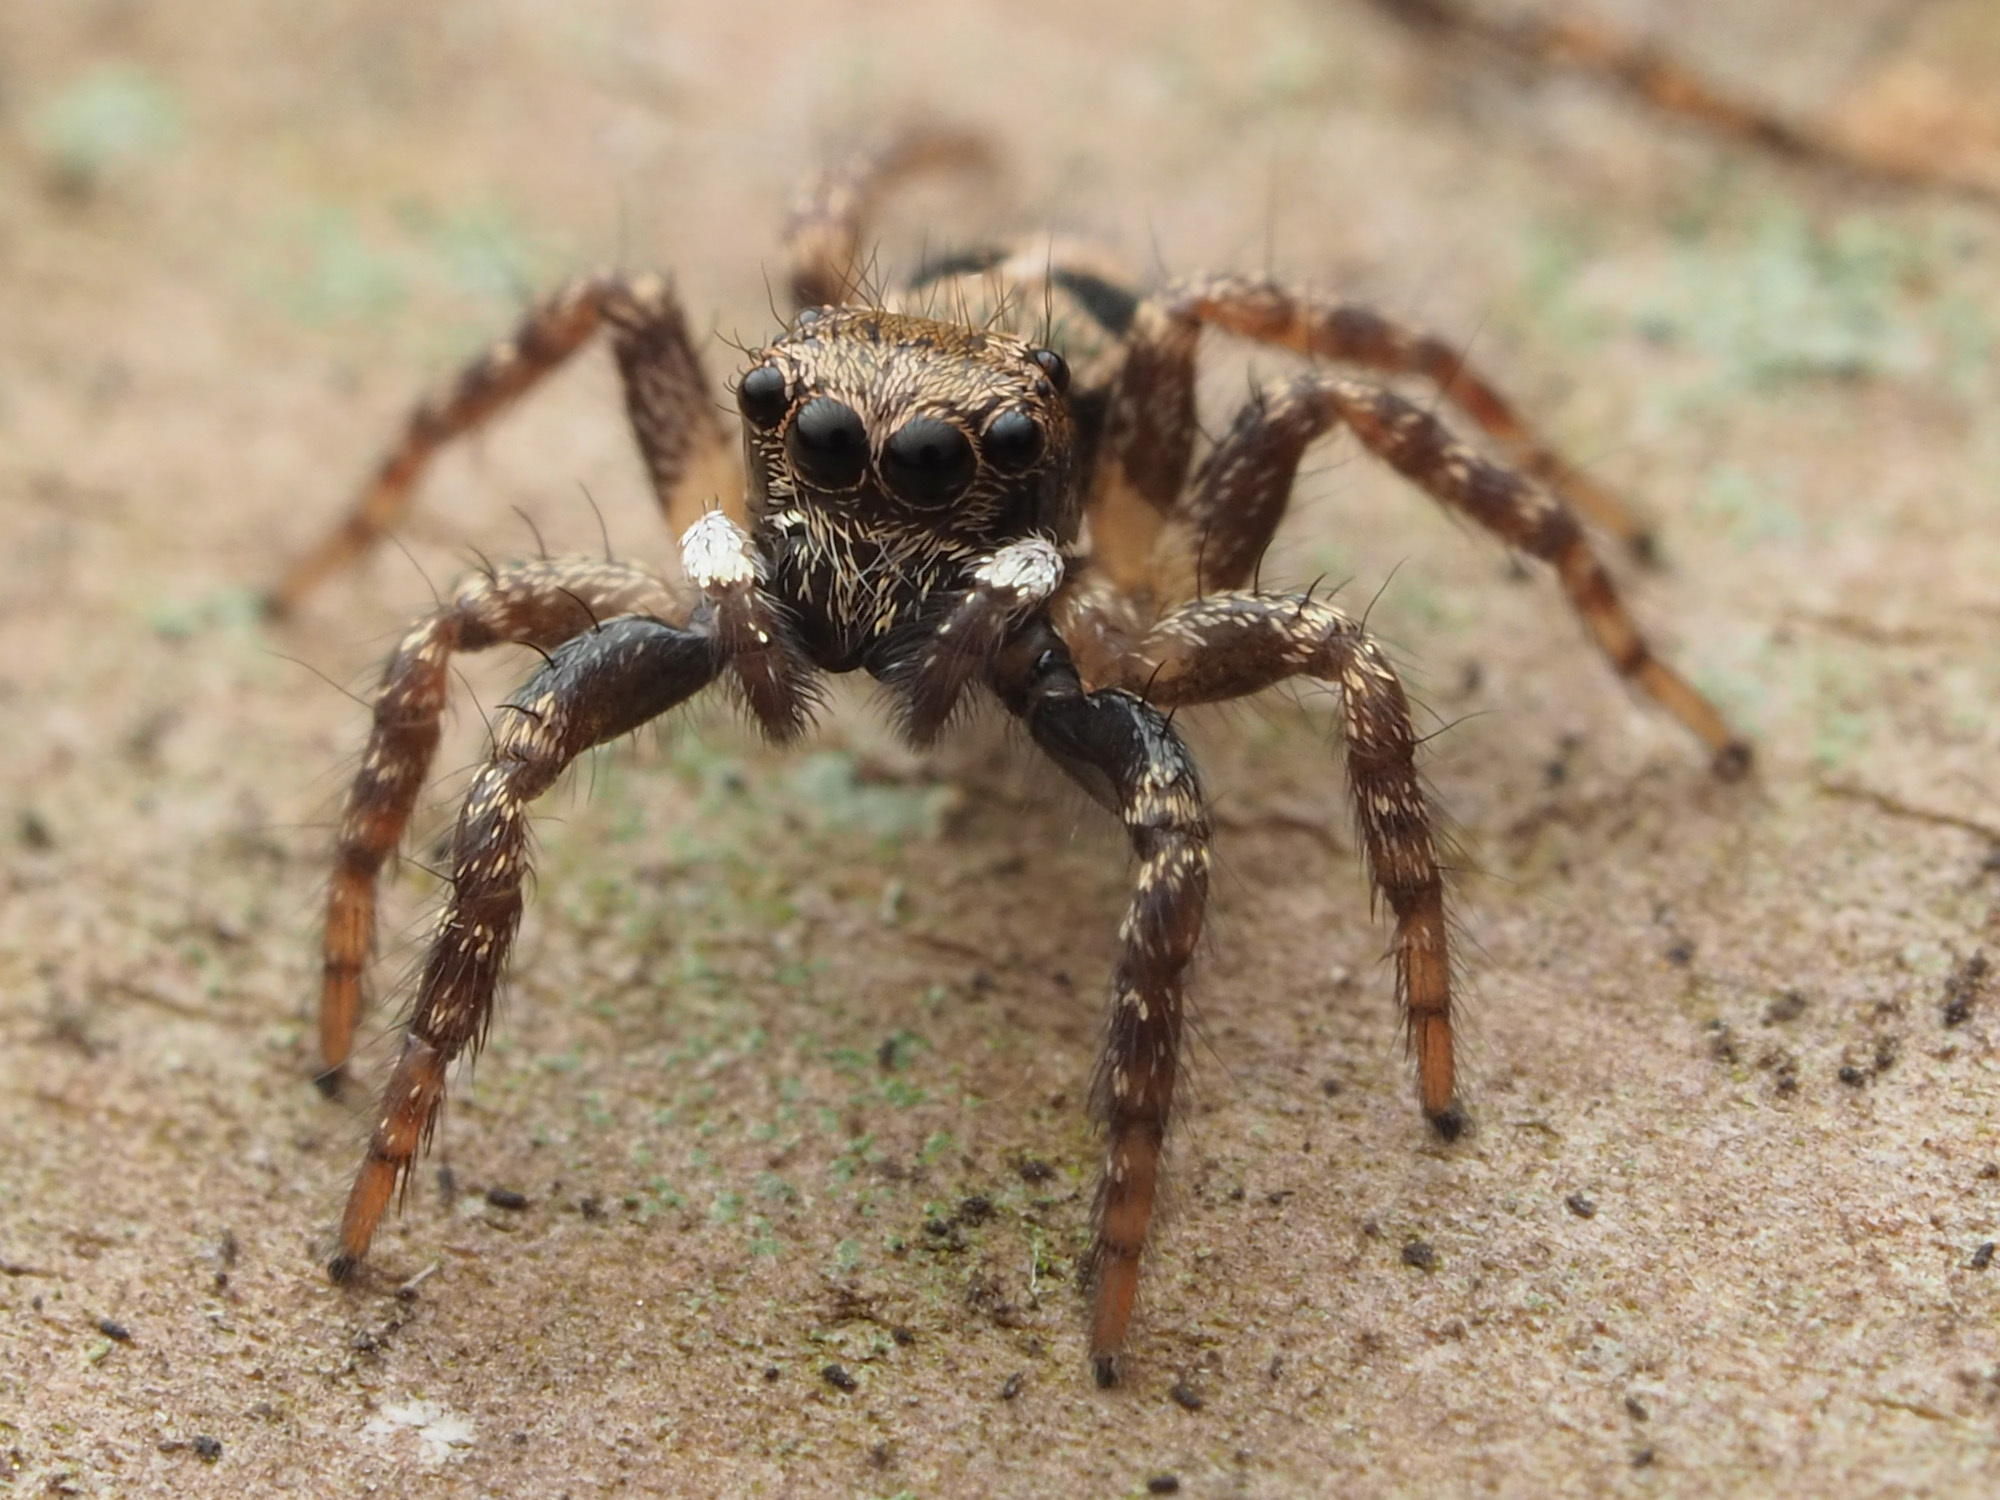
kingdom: Animalia
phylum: Arthropoda
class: Arachnida
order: Araneae
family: Salticidae
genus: Anasaitis
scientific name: Anasaitis canosa
